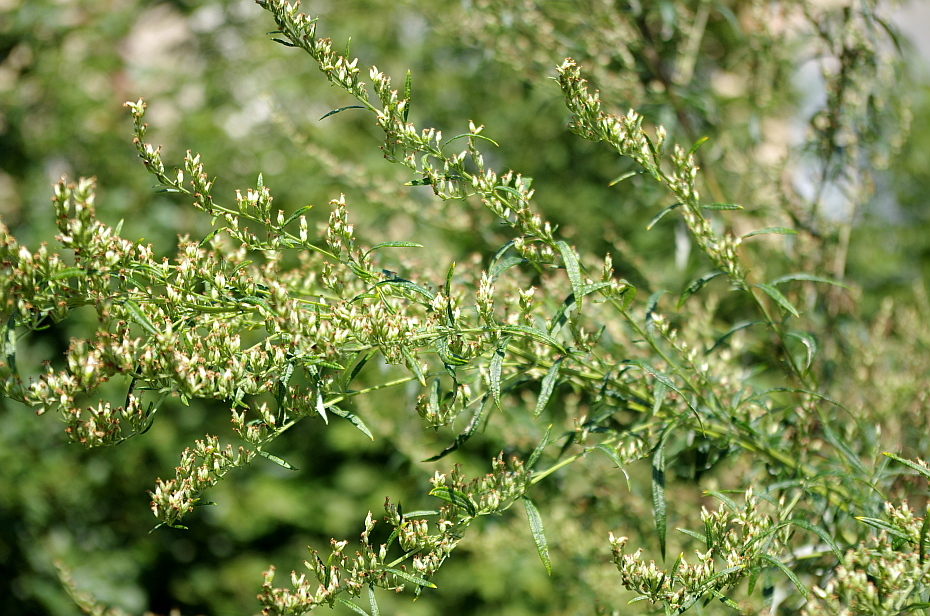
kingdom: Plantae
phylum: Tracheophyta
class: Magnoliopsida
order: Asterales
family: Asteraceae
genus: Artemisia
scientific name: Artemisia vulgaris
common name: Mugwort
